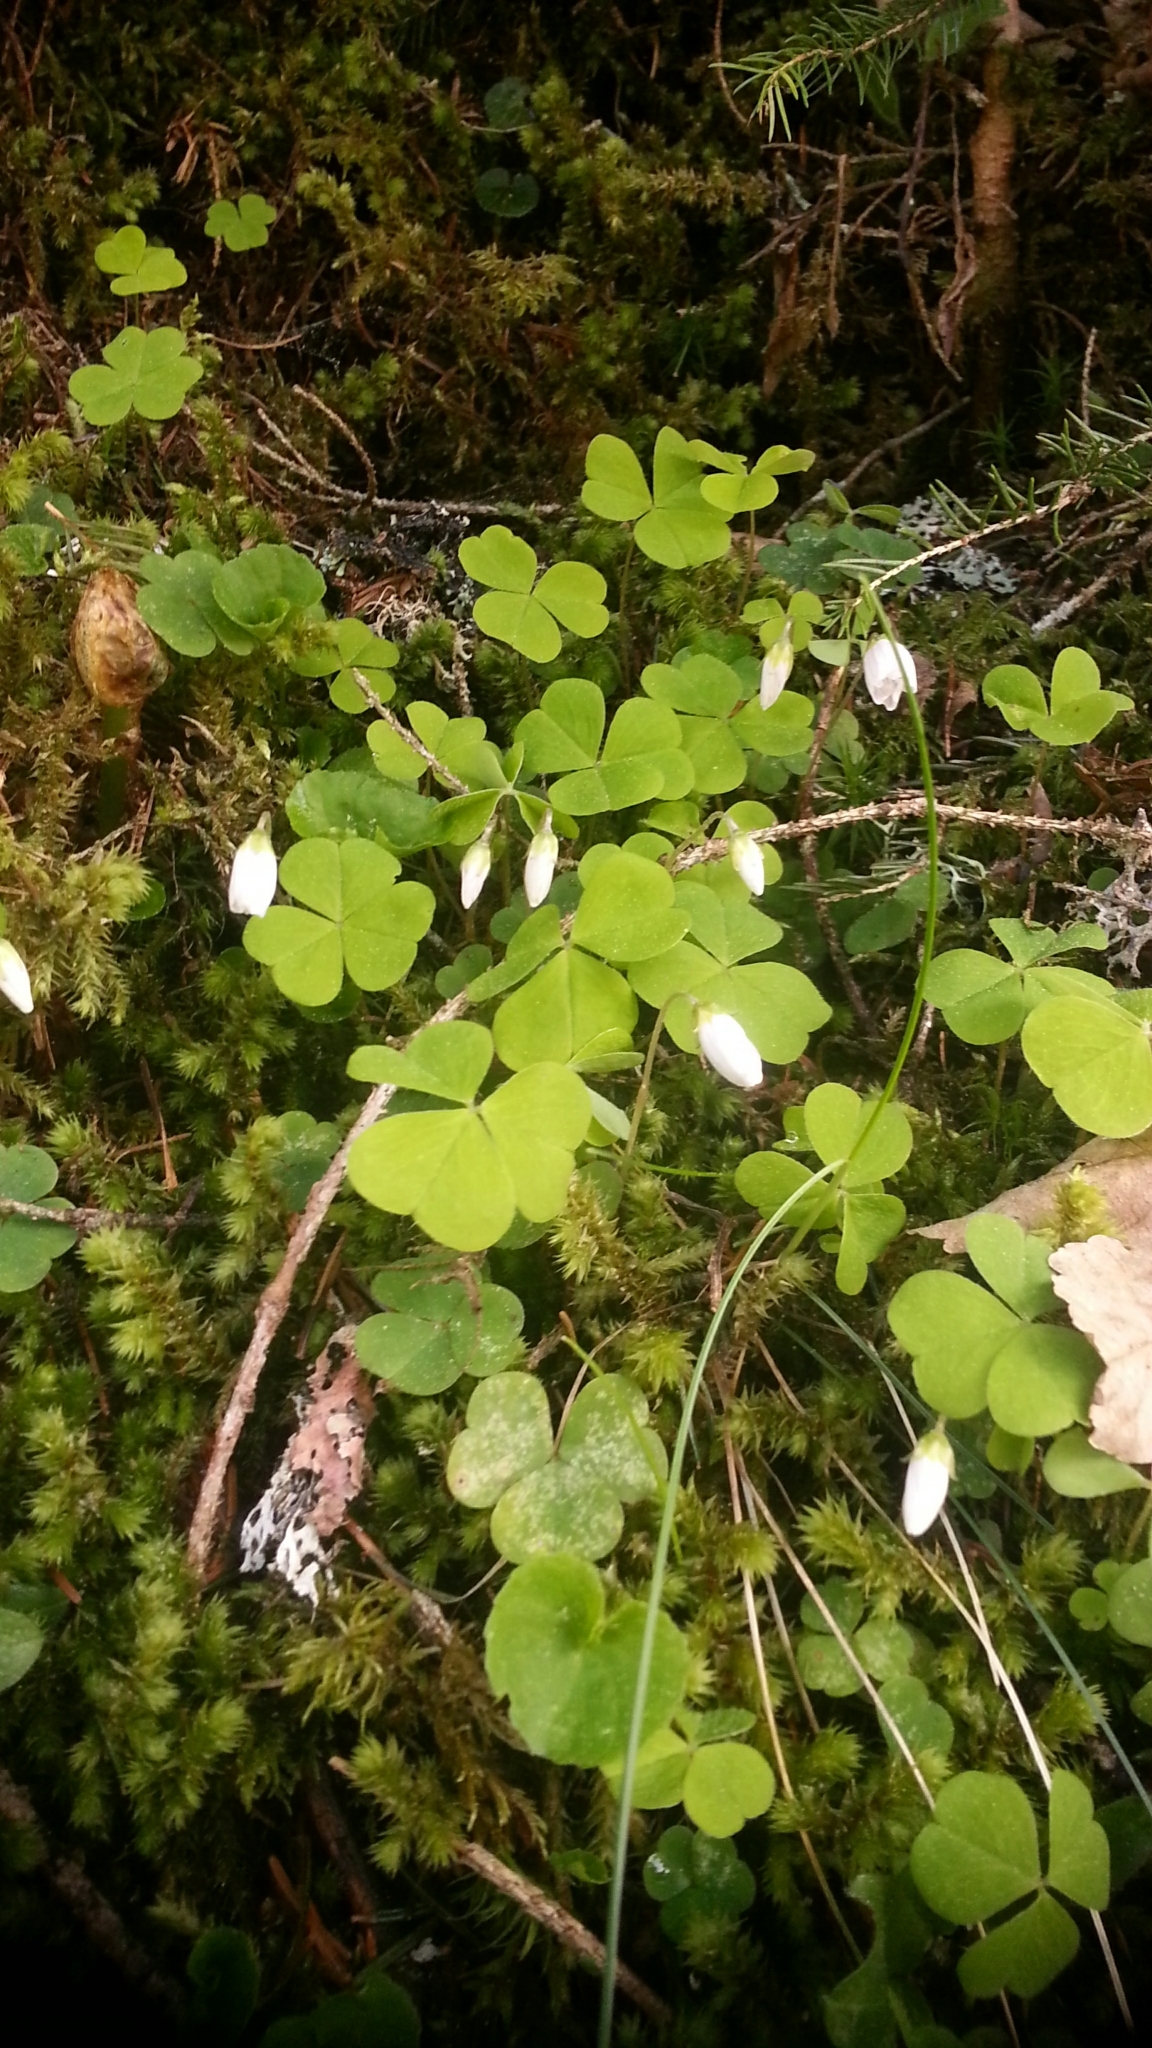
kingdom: Plantae
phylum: Tracheophyta
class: Magnoliopsida
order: Oxalidales
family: Oxalidaceae
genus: Oxalis
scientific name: Oxalis acetosella
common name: Wood-sorrel
